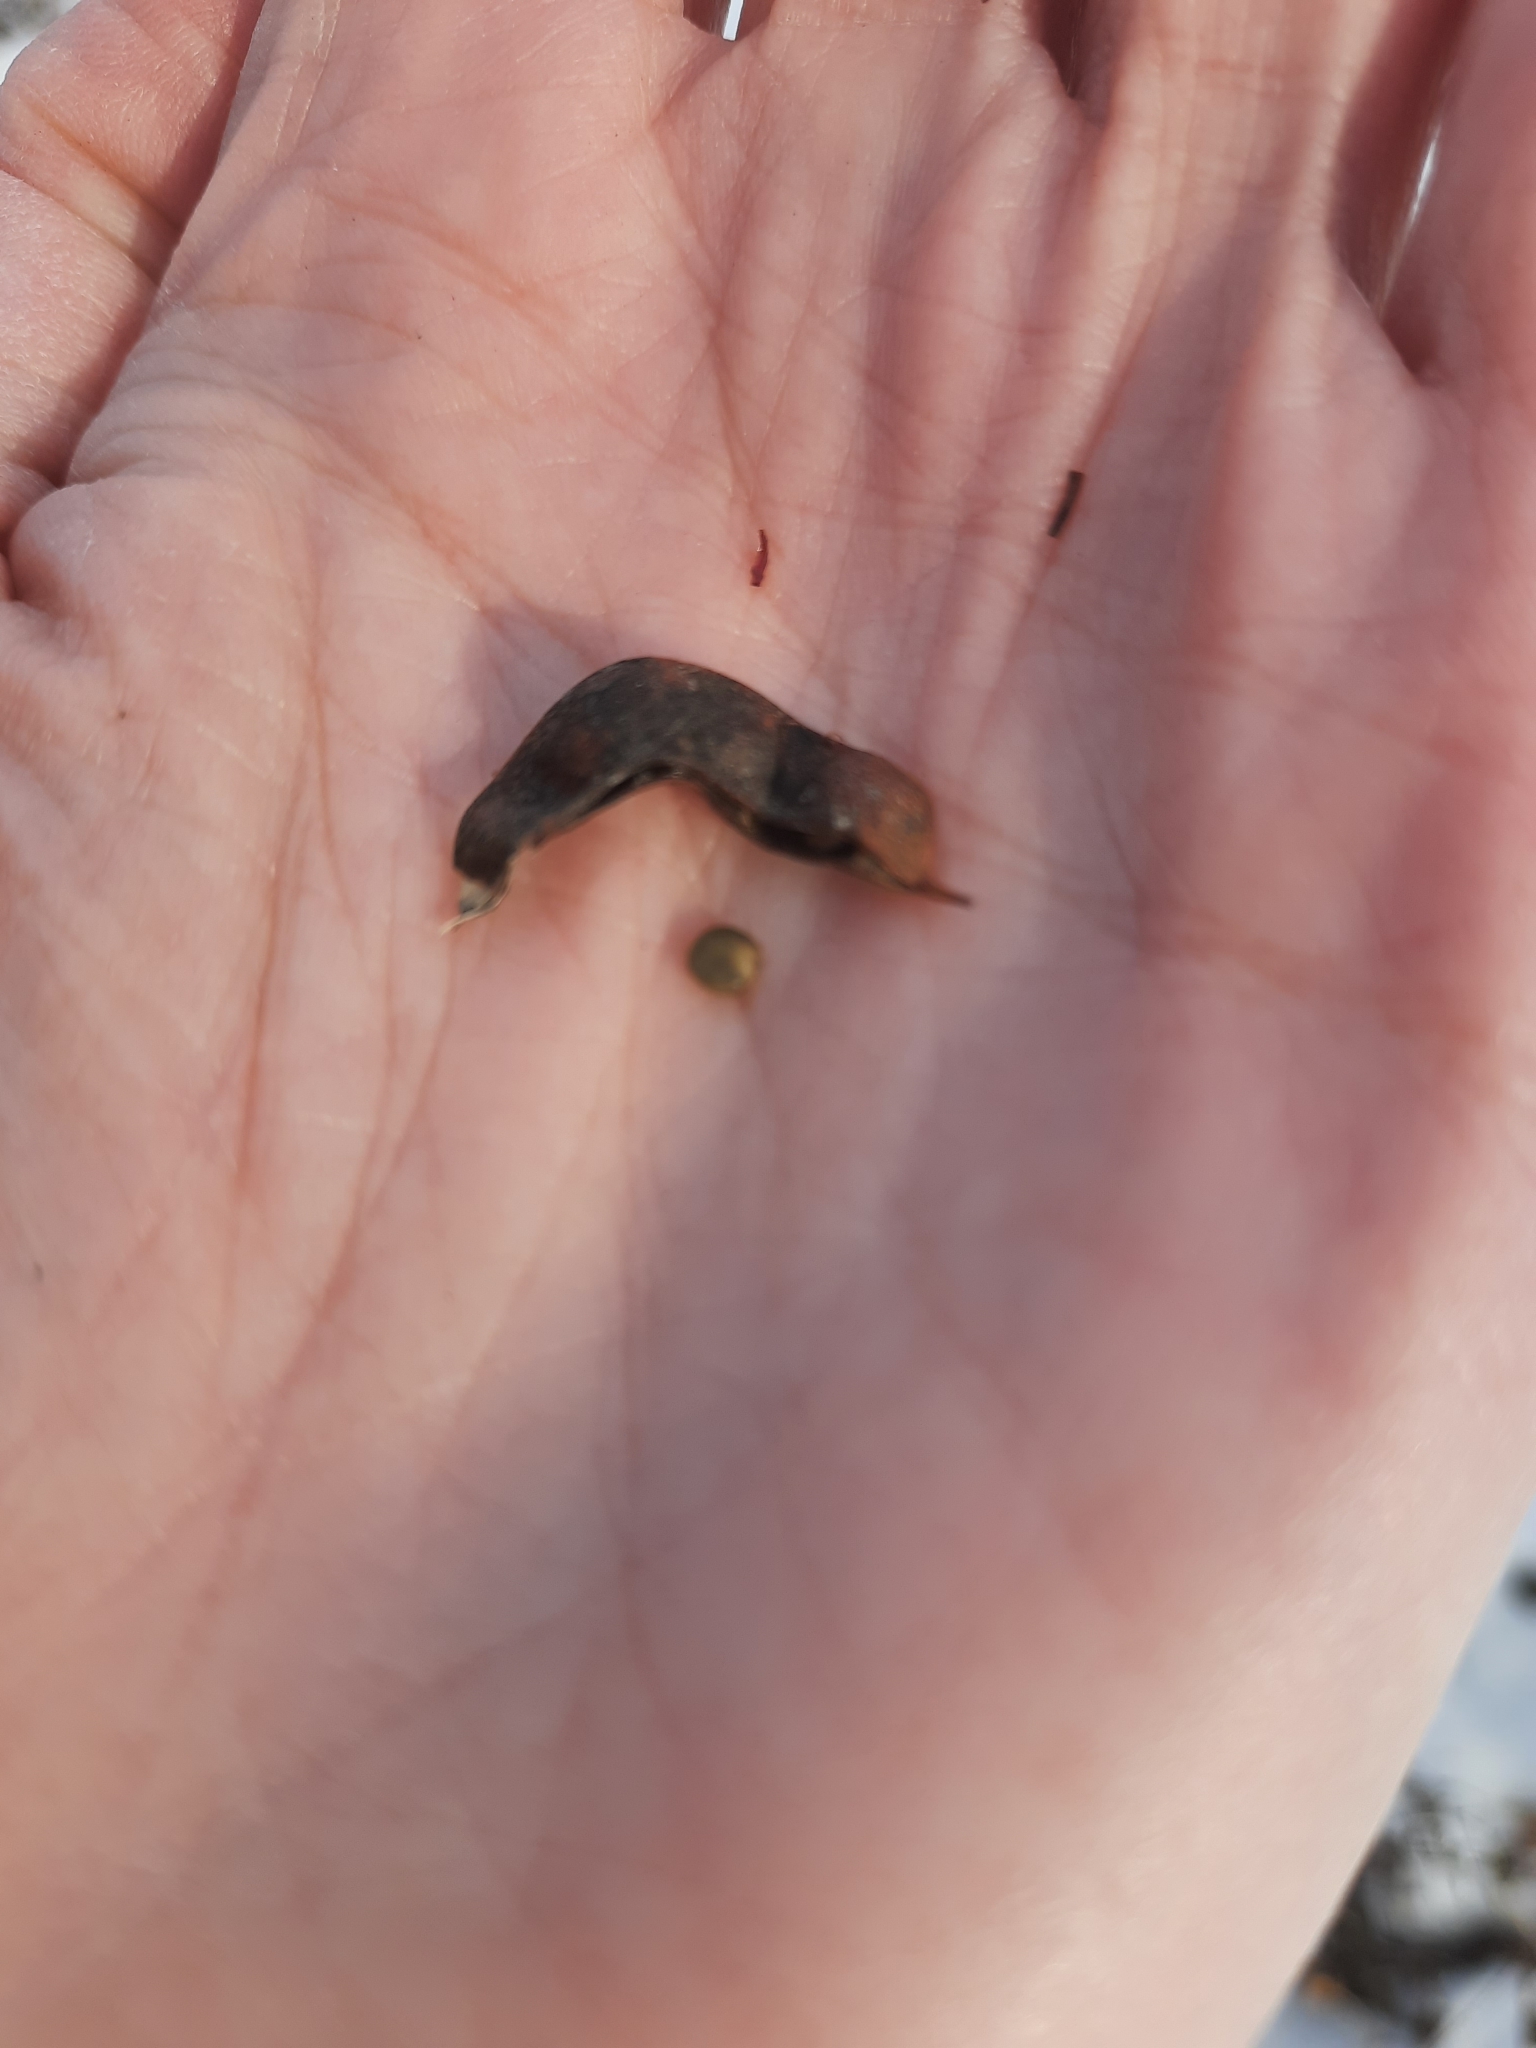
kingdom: Plantae
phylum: Tracheophyta
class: Magnoliopsida
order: Fabales
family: Fabaceae
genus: Glycyrrhiza
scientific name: Glycyrrhiza uralensis
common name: Chinese licorice
